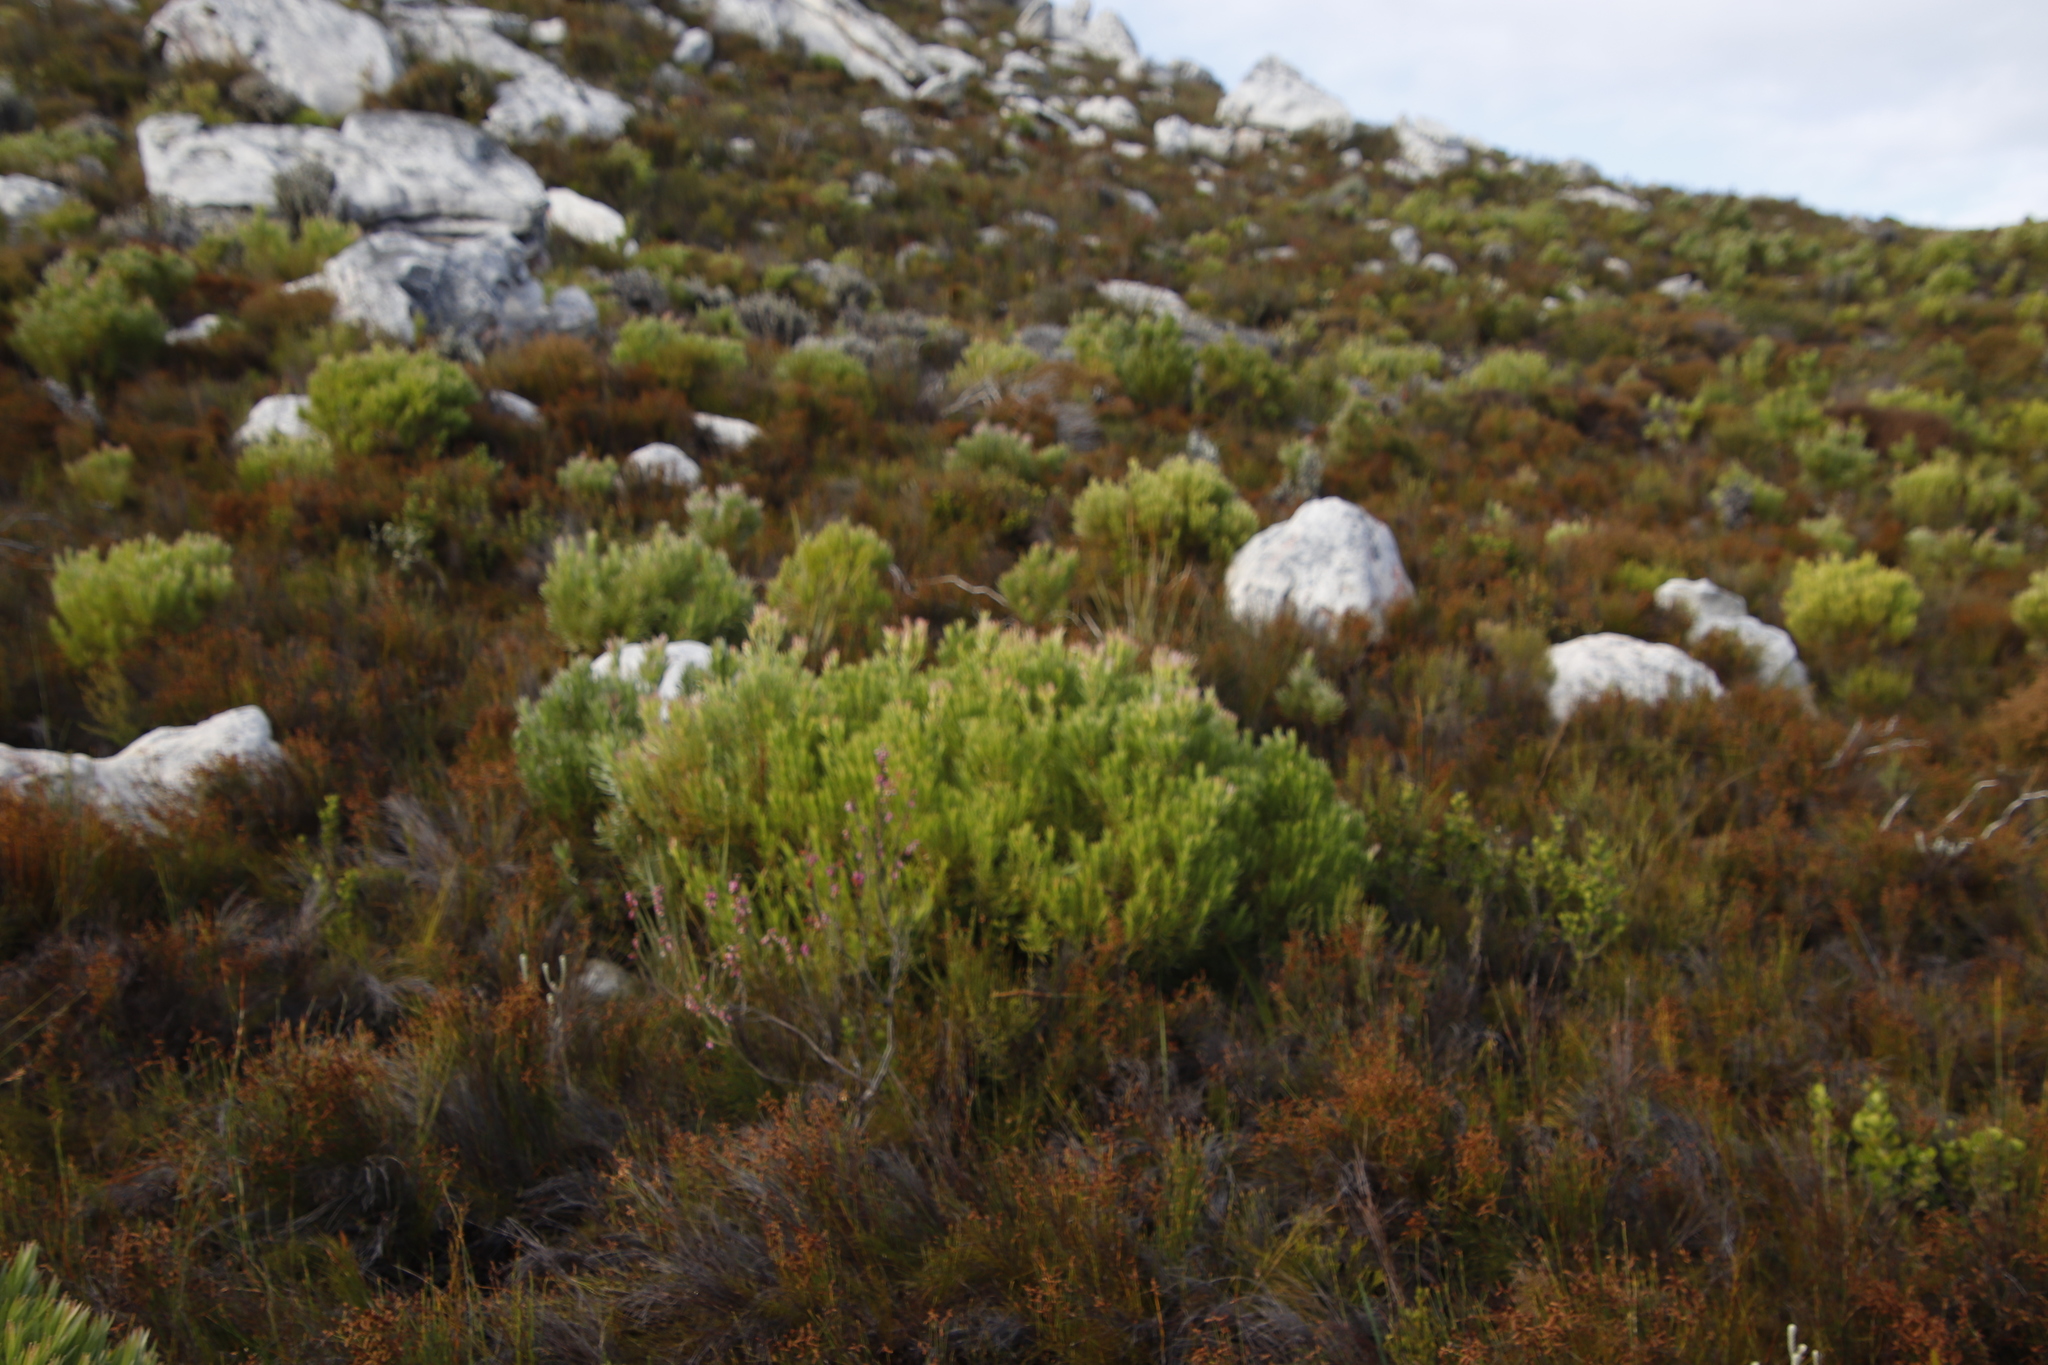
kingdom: Plantae
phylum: Tracheophyta
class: Magnoliopsida
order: Proteales
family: Proteaceae
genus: Leucadendron
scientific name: Leucadendron xanthoconus
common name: Sickle-leaf conebush
